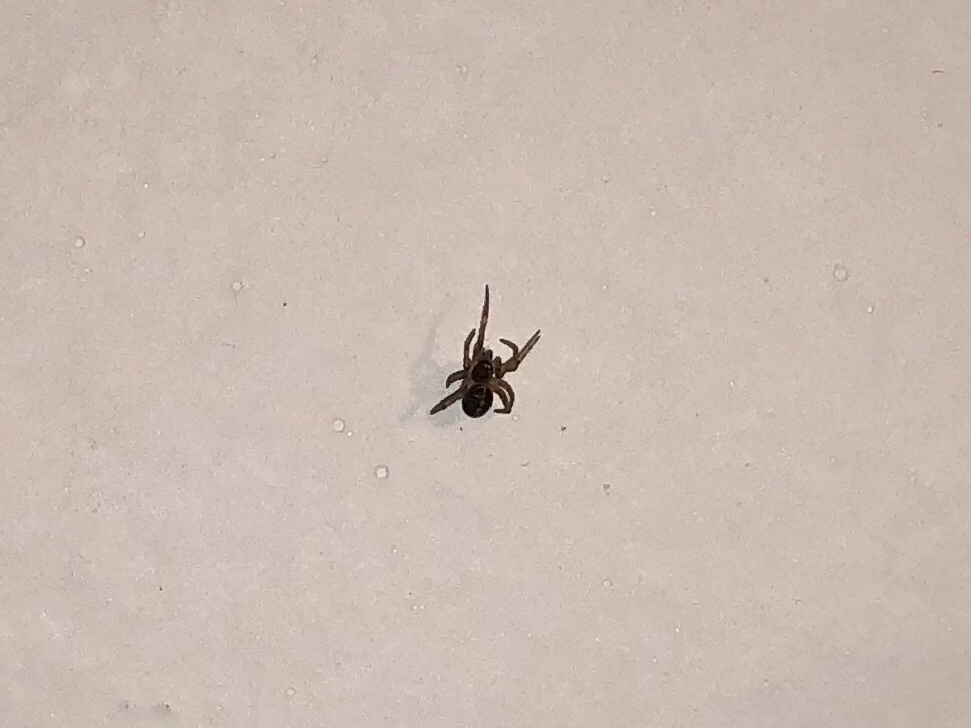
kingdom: Animalia
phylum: Arthropoda
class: Arachnida
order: Araneae
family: Theridiidae
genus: Steatoda
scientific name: Steatoda bipunctata
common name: False widow
